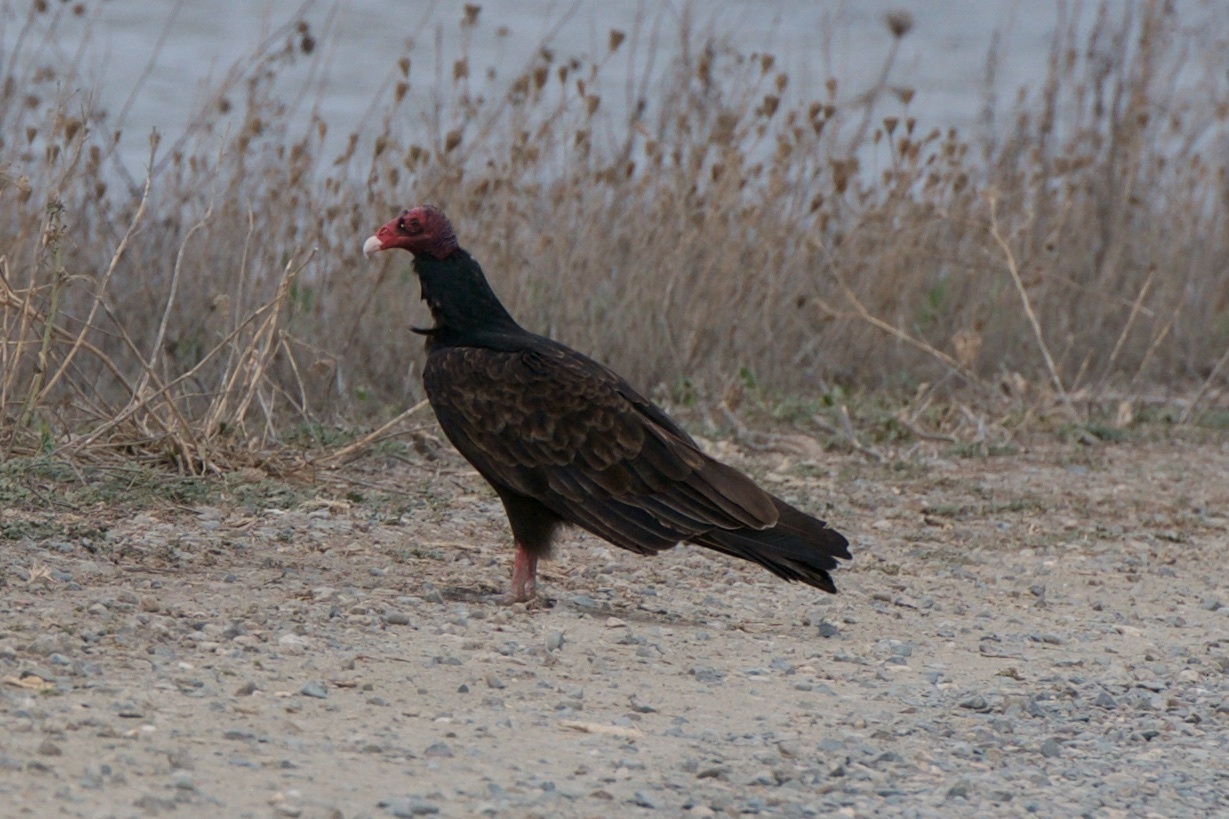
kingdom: Animalia
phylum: Chordata
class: Aves
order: Accipitriformes
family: Cathartidae
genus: Cathartes
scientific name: Cathartes aura
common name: Turkey vulture
